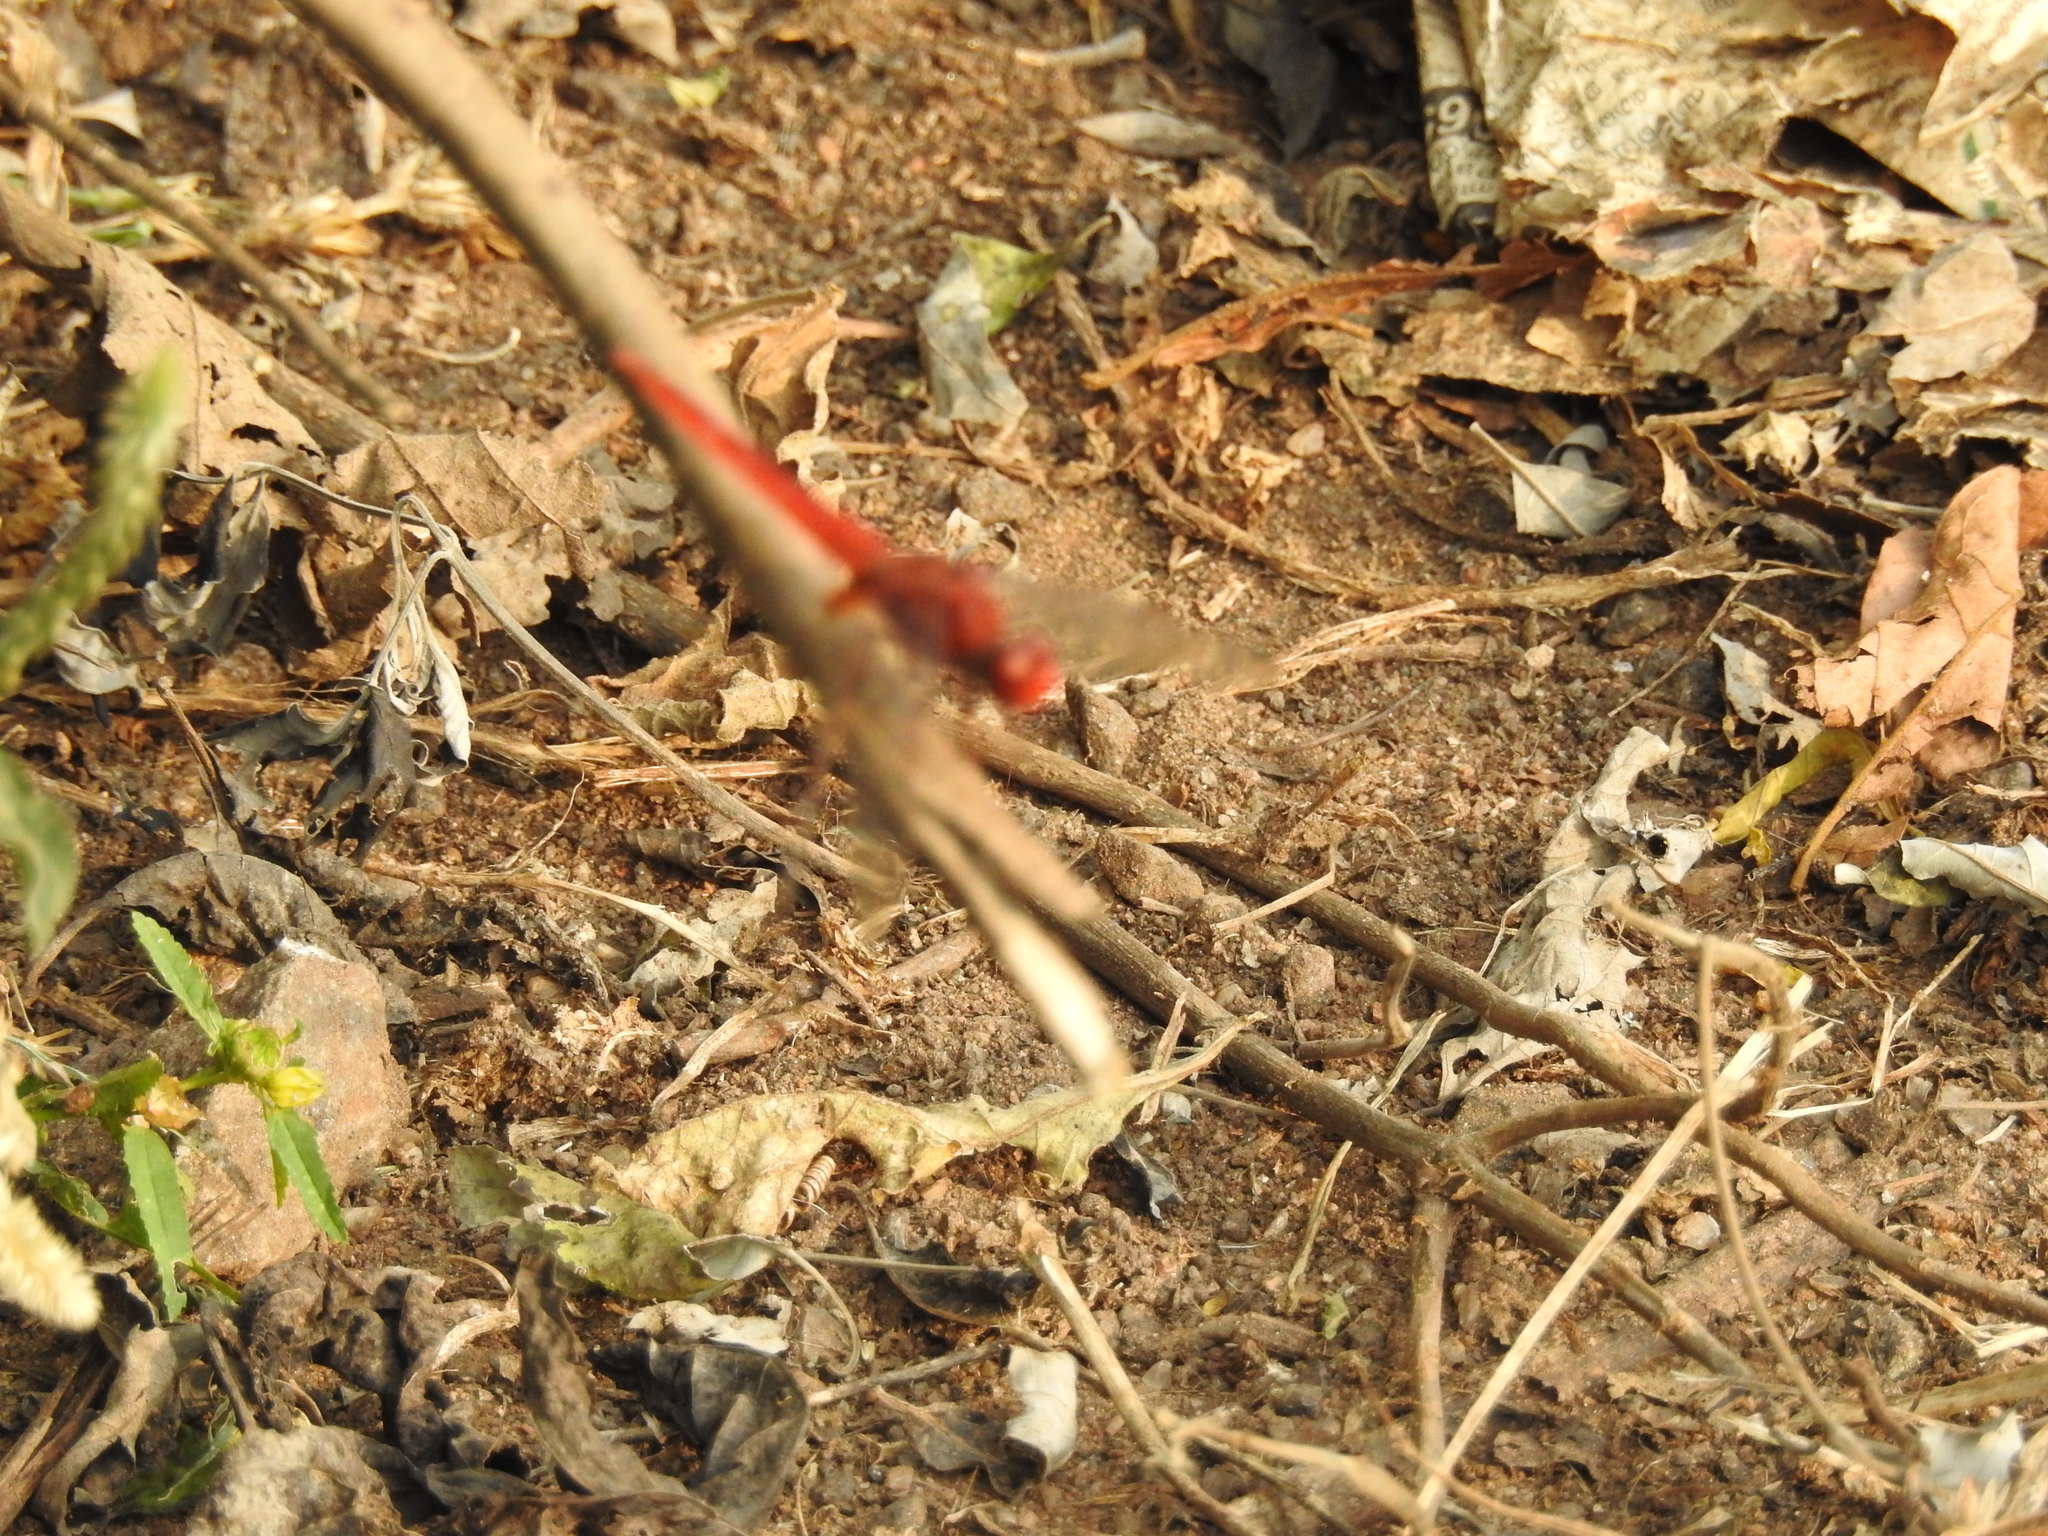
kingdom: Animalia
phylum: Arthropoda
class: Insecta
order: Odonata
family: Libellulidae
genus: Crocothemis
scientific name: Crocothemis servilia
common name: Scarlet skimmer
